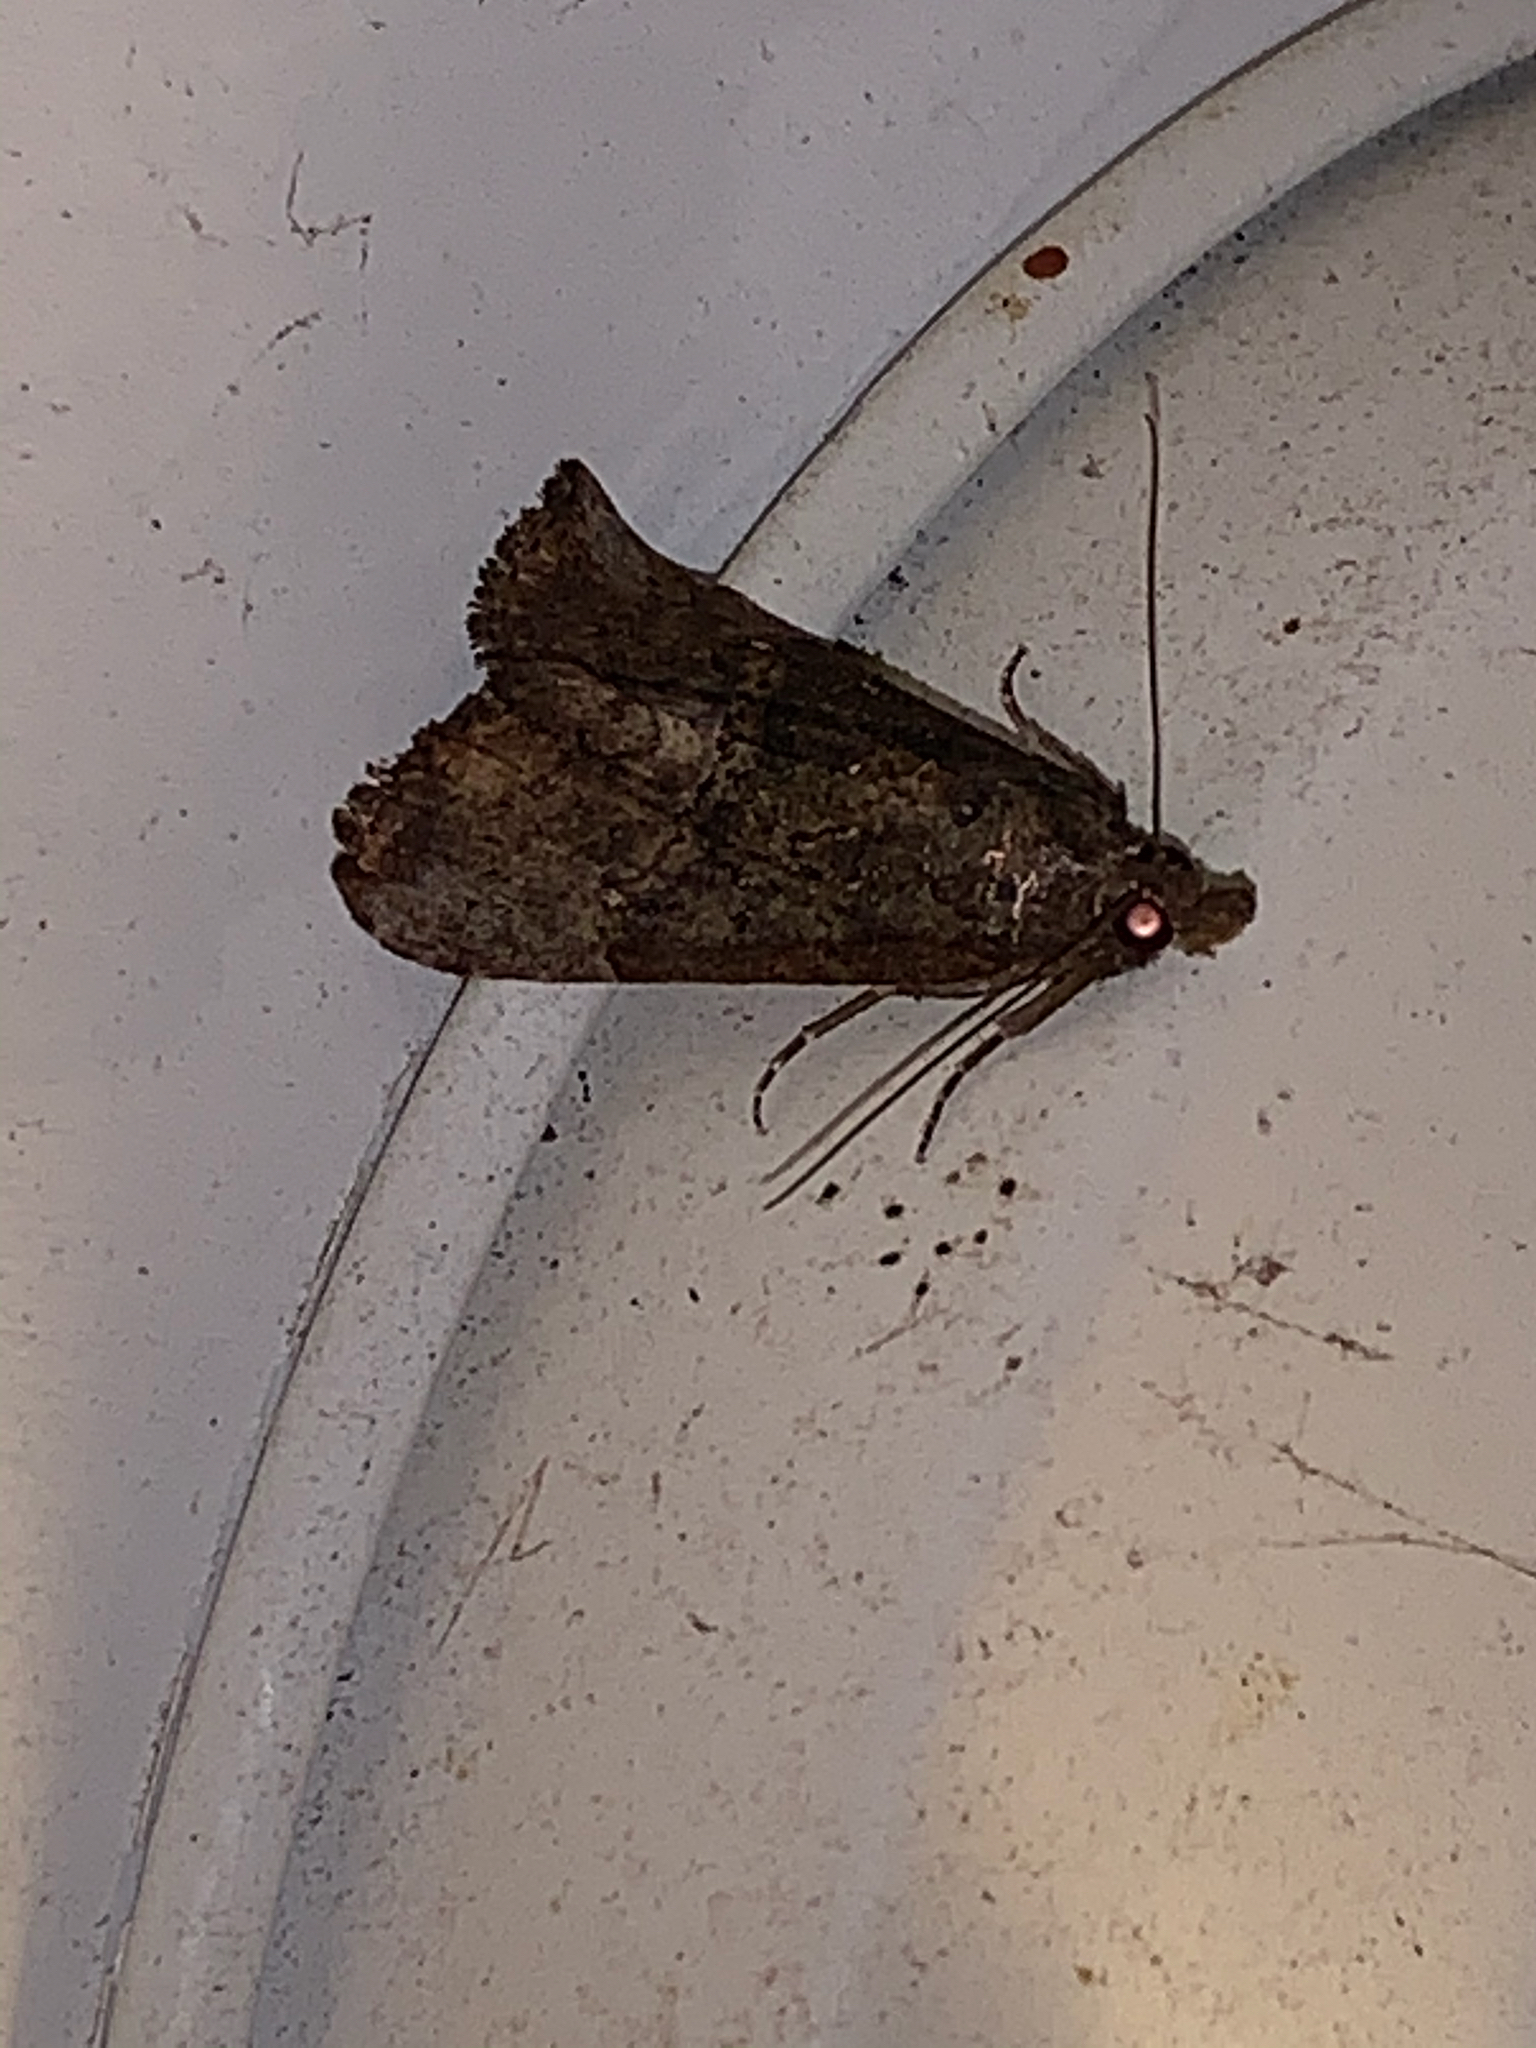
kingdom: Animalia
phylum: Arthropoda
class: Insecta
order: Lepidoptera
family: Erebidae
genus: Hypena
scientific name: Hypena scabra
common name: Green cloverworm
